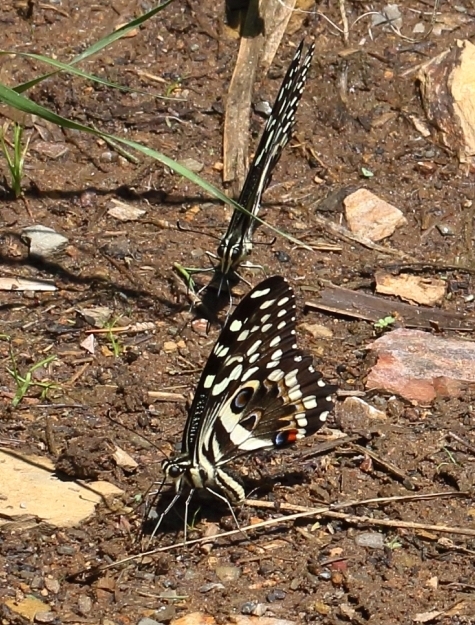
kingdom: Animalia
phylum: Arthropoda
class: Insecta
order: Lepidoptera
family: Papilionidae
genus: Papilio
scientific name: Papilio demodocus
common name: Christmas butterfly
